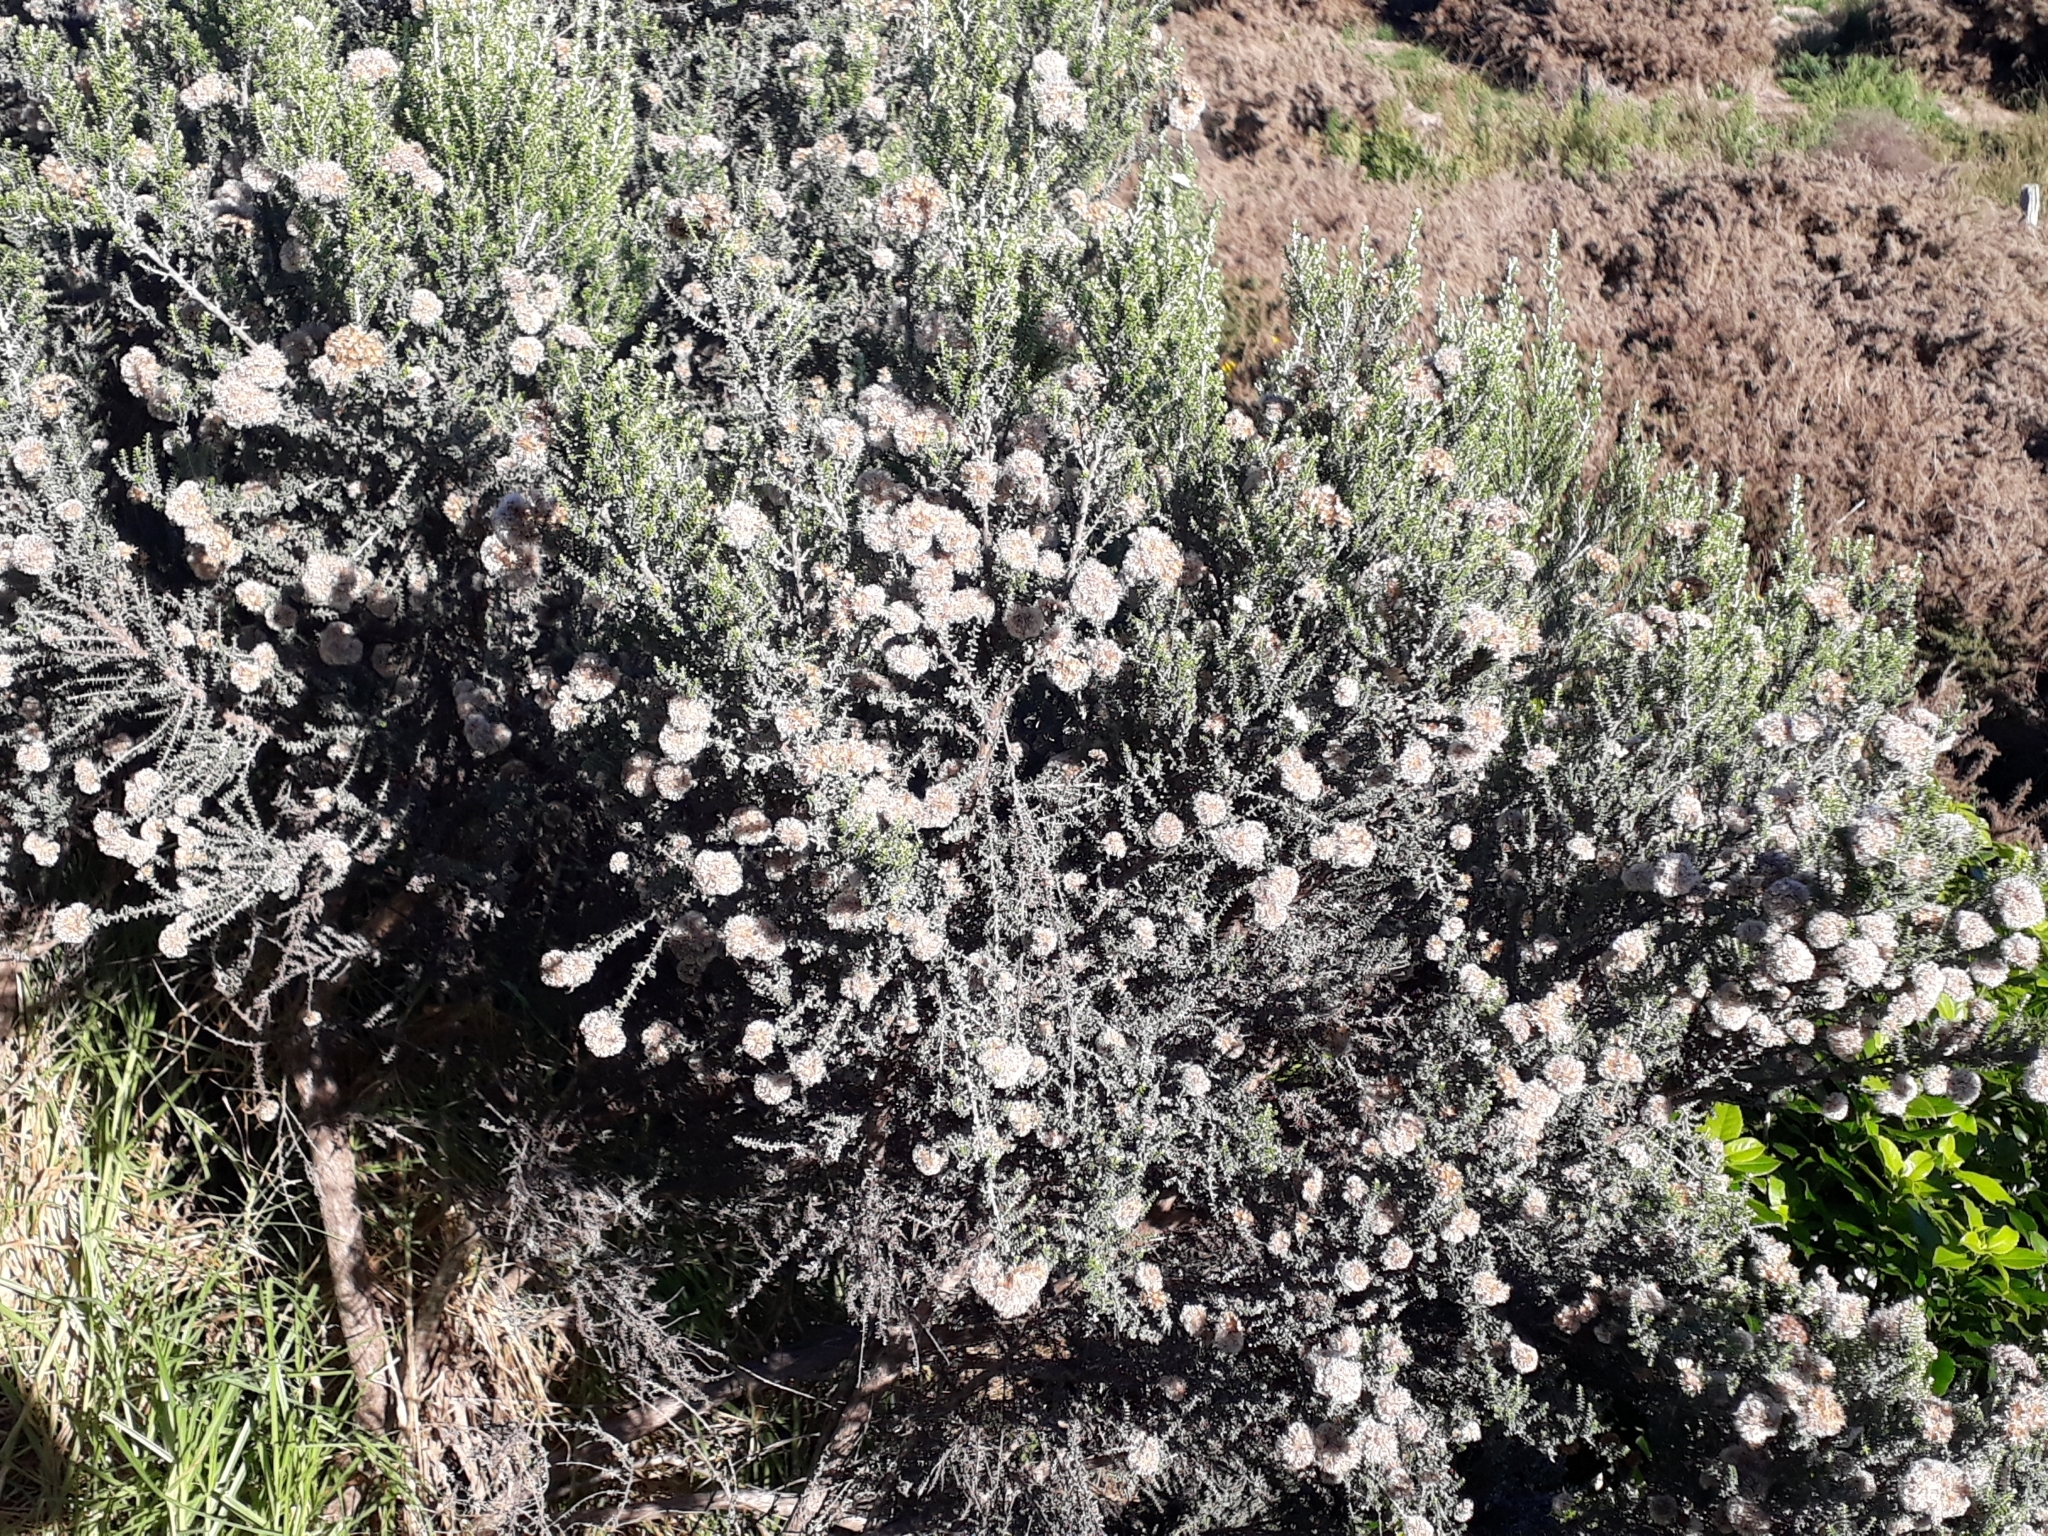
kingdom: Plantae
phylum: Tracheophyta
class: Magnoliopsida
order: Asterales
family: Asteraceae
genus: Ozothamnus
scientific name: Ozothamnus leptophyllus
